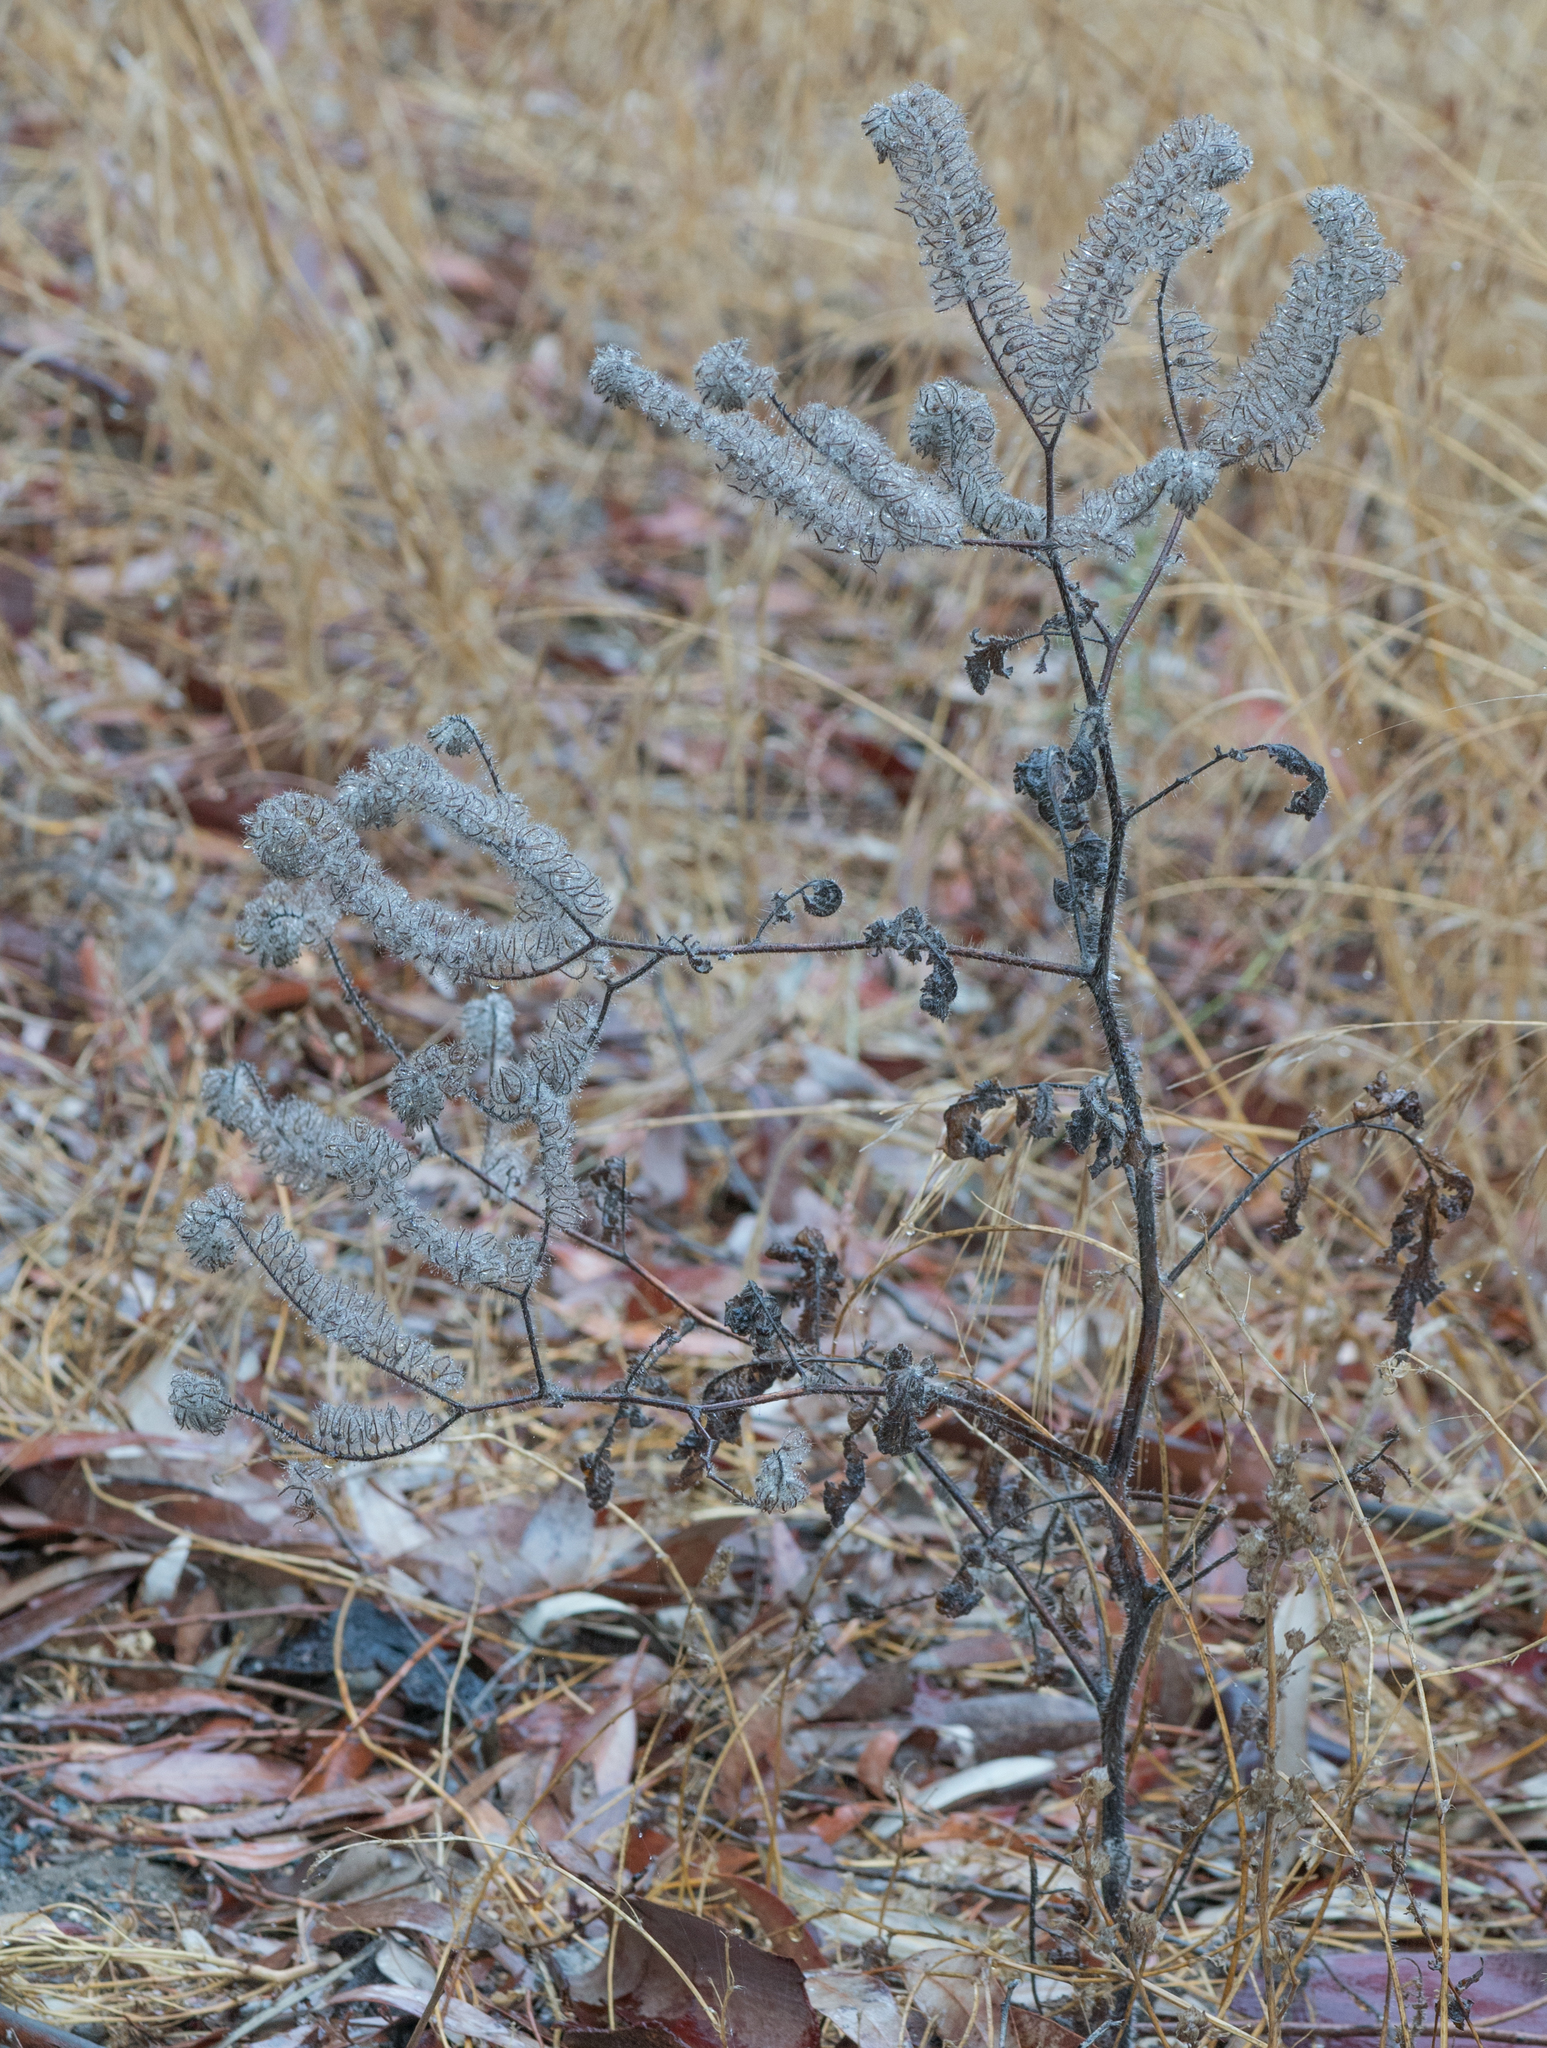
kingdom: Plantae
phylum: Tracheophyta
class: Magnoliopsida
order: Boraginales
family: Hydrophyllaceae
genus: Phacelia
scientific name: Phacelia cicutaria
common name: Caterpillar phacelia
